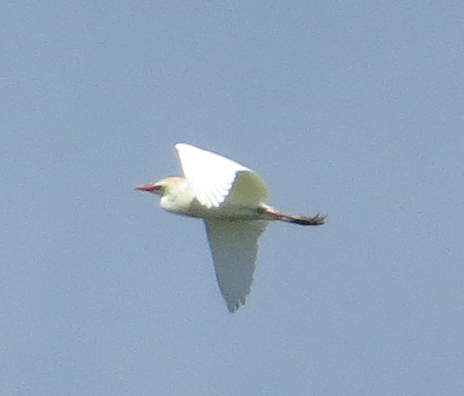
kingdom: Animalia
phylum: Chordata
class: Aves
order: Pelecaniformes
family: Ardeidae
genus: Bubulcus
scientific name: Bubulcus ibis
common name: Cattle egret
